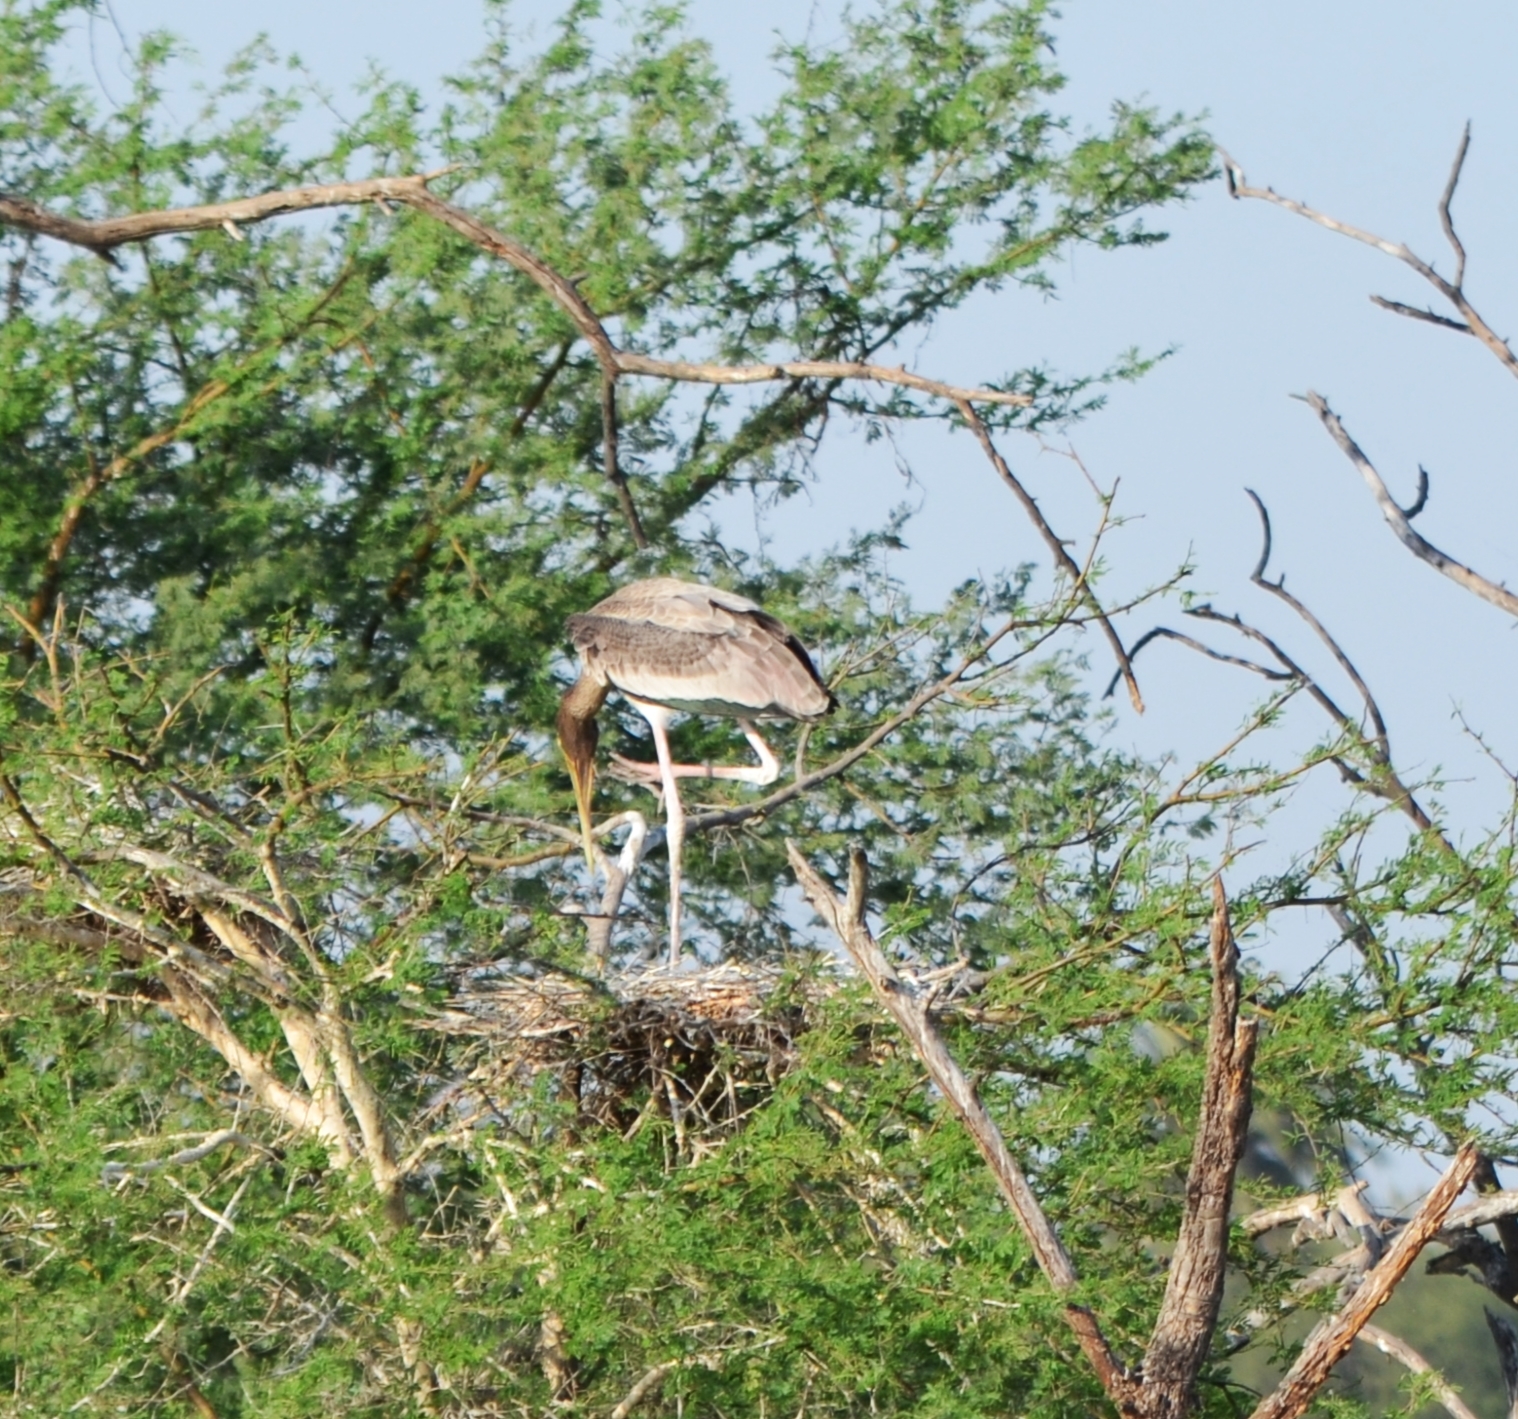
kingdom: Animalia
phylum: Chordata
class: Aves
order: Ciconiiformes
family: Ciconiidae
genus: Mycteria
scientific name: Mycteria leucocephala
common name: Painted stork
